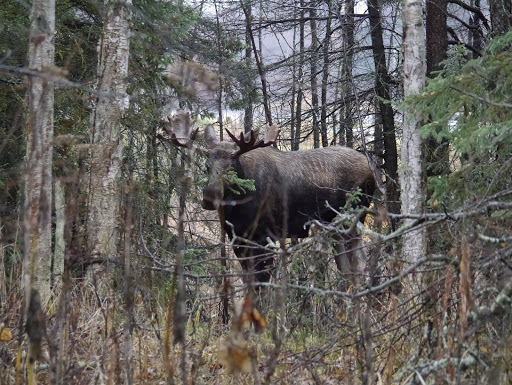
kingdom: Animalia
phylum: Chordata
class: Mammalia
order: Artiodactyla
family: Cervidae
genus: Alces
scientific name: Alces alces
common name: Moose
